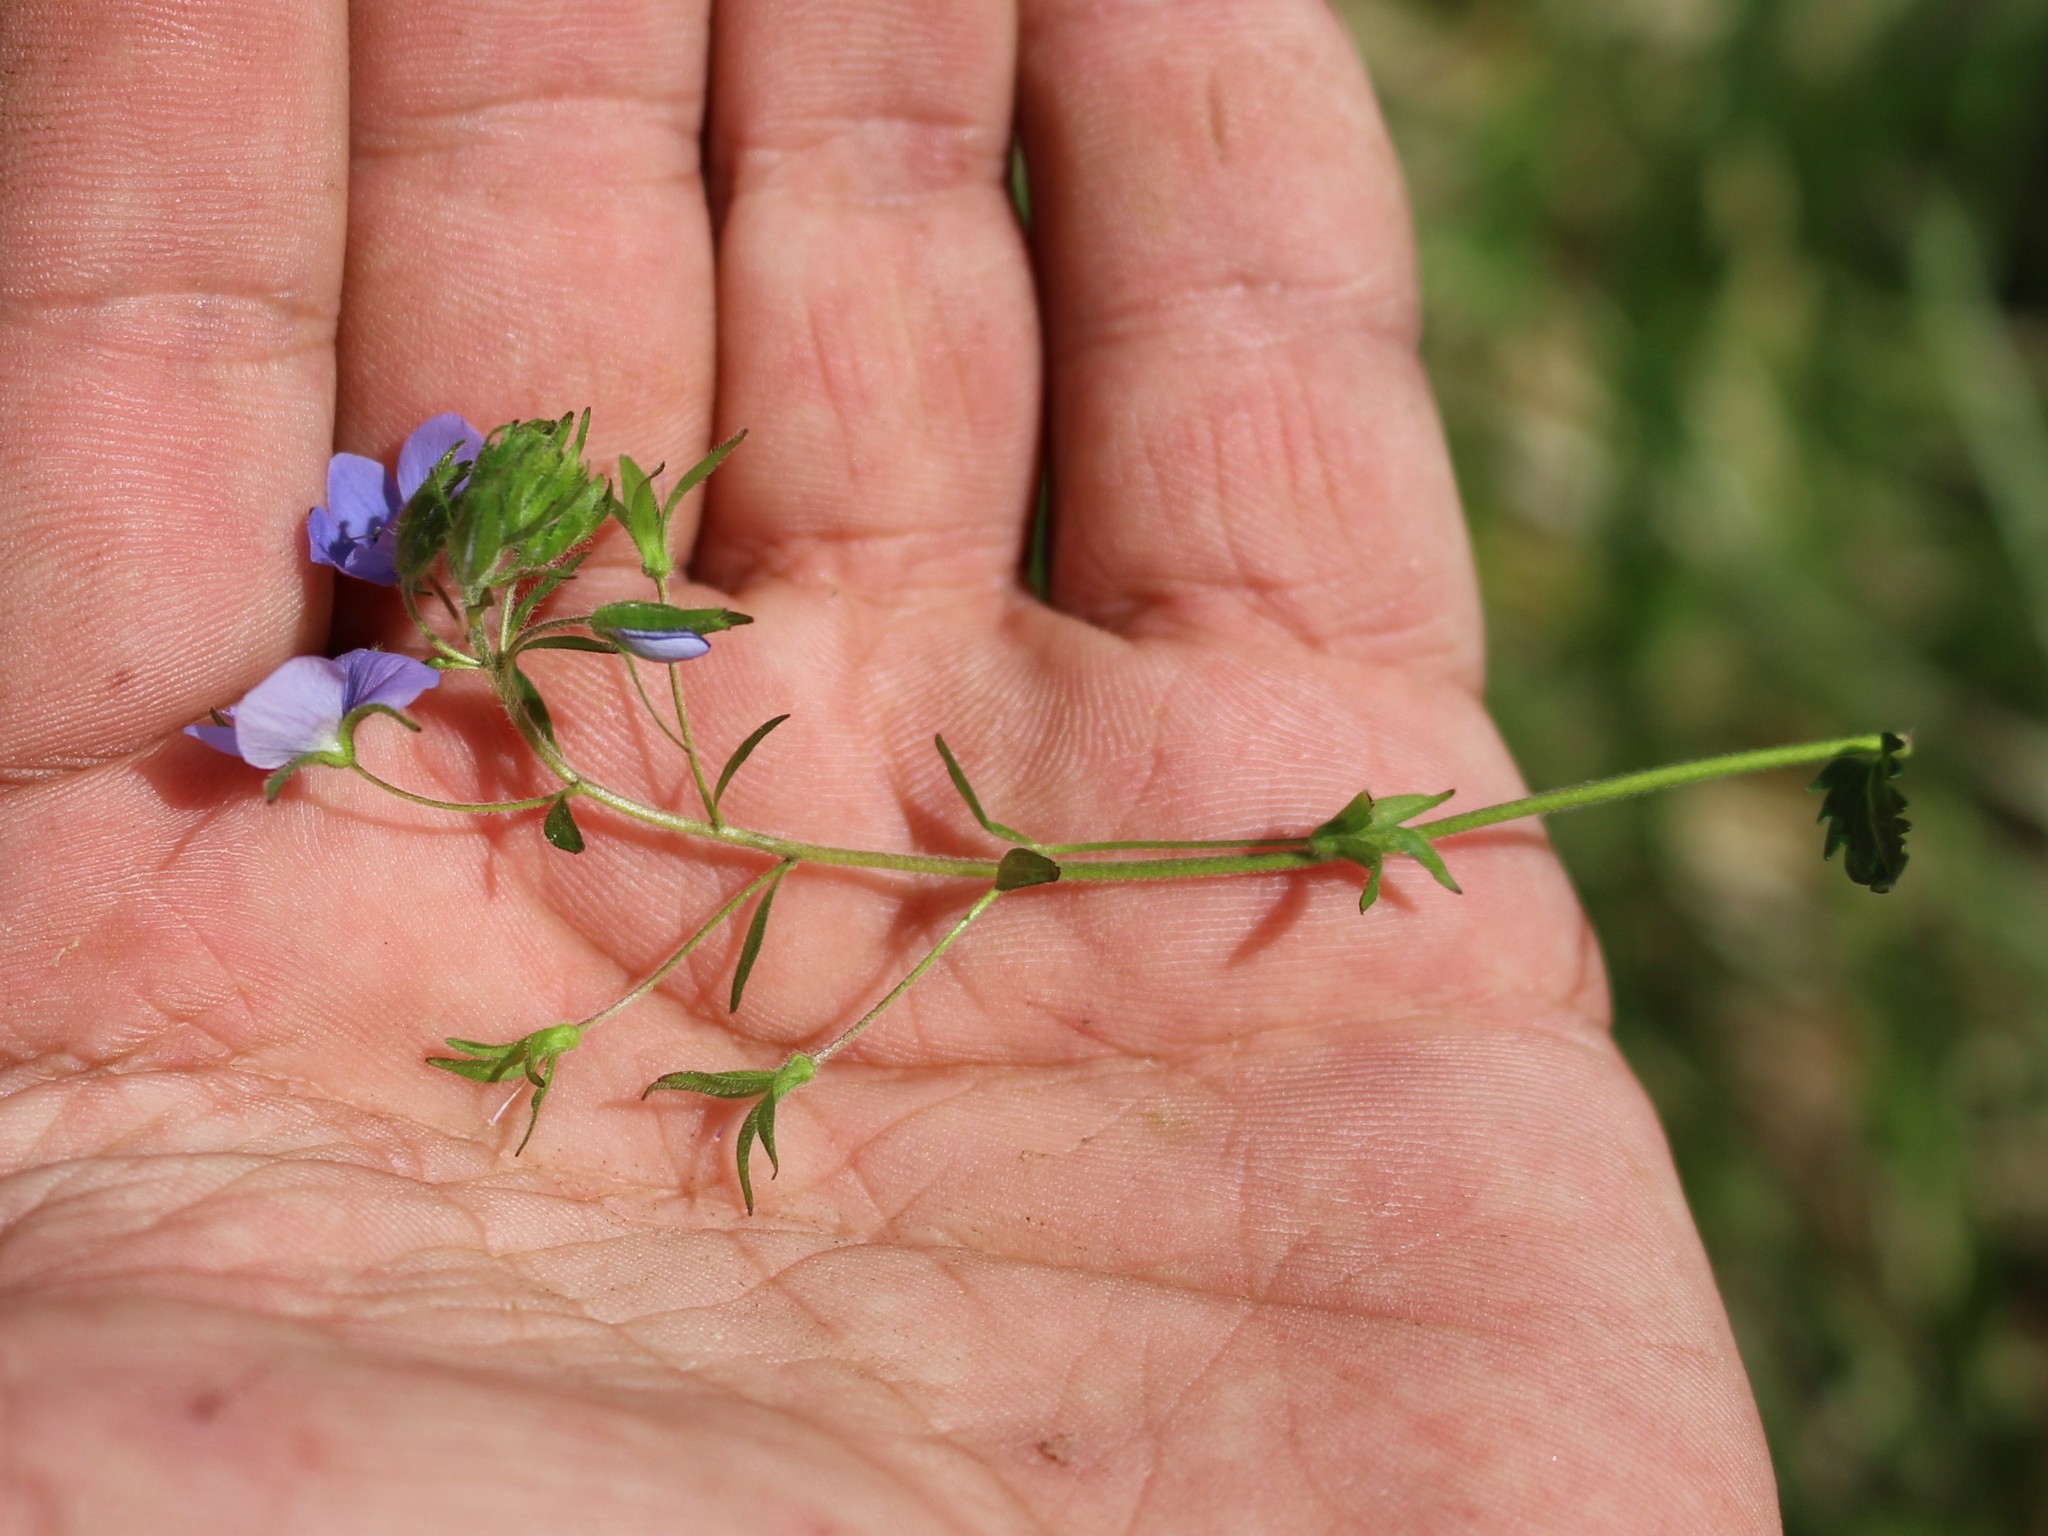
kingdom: Plantae
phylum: Tracheophyta
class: Magnoliopsida
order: Lamiales
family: Plantaginaceae
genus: Veronica
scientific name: Veronica
